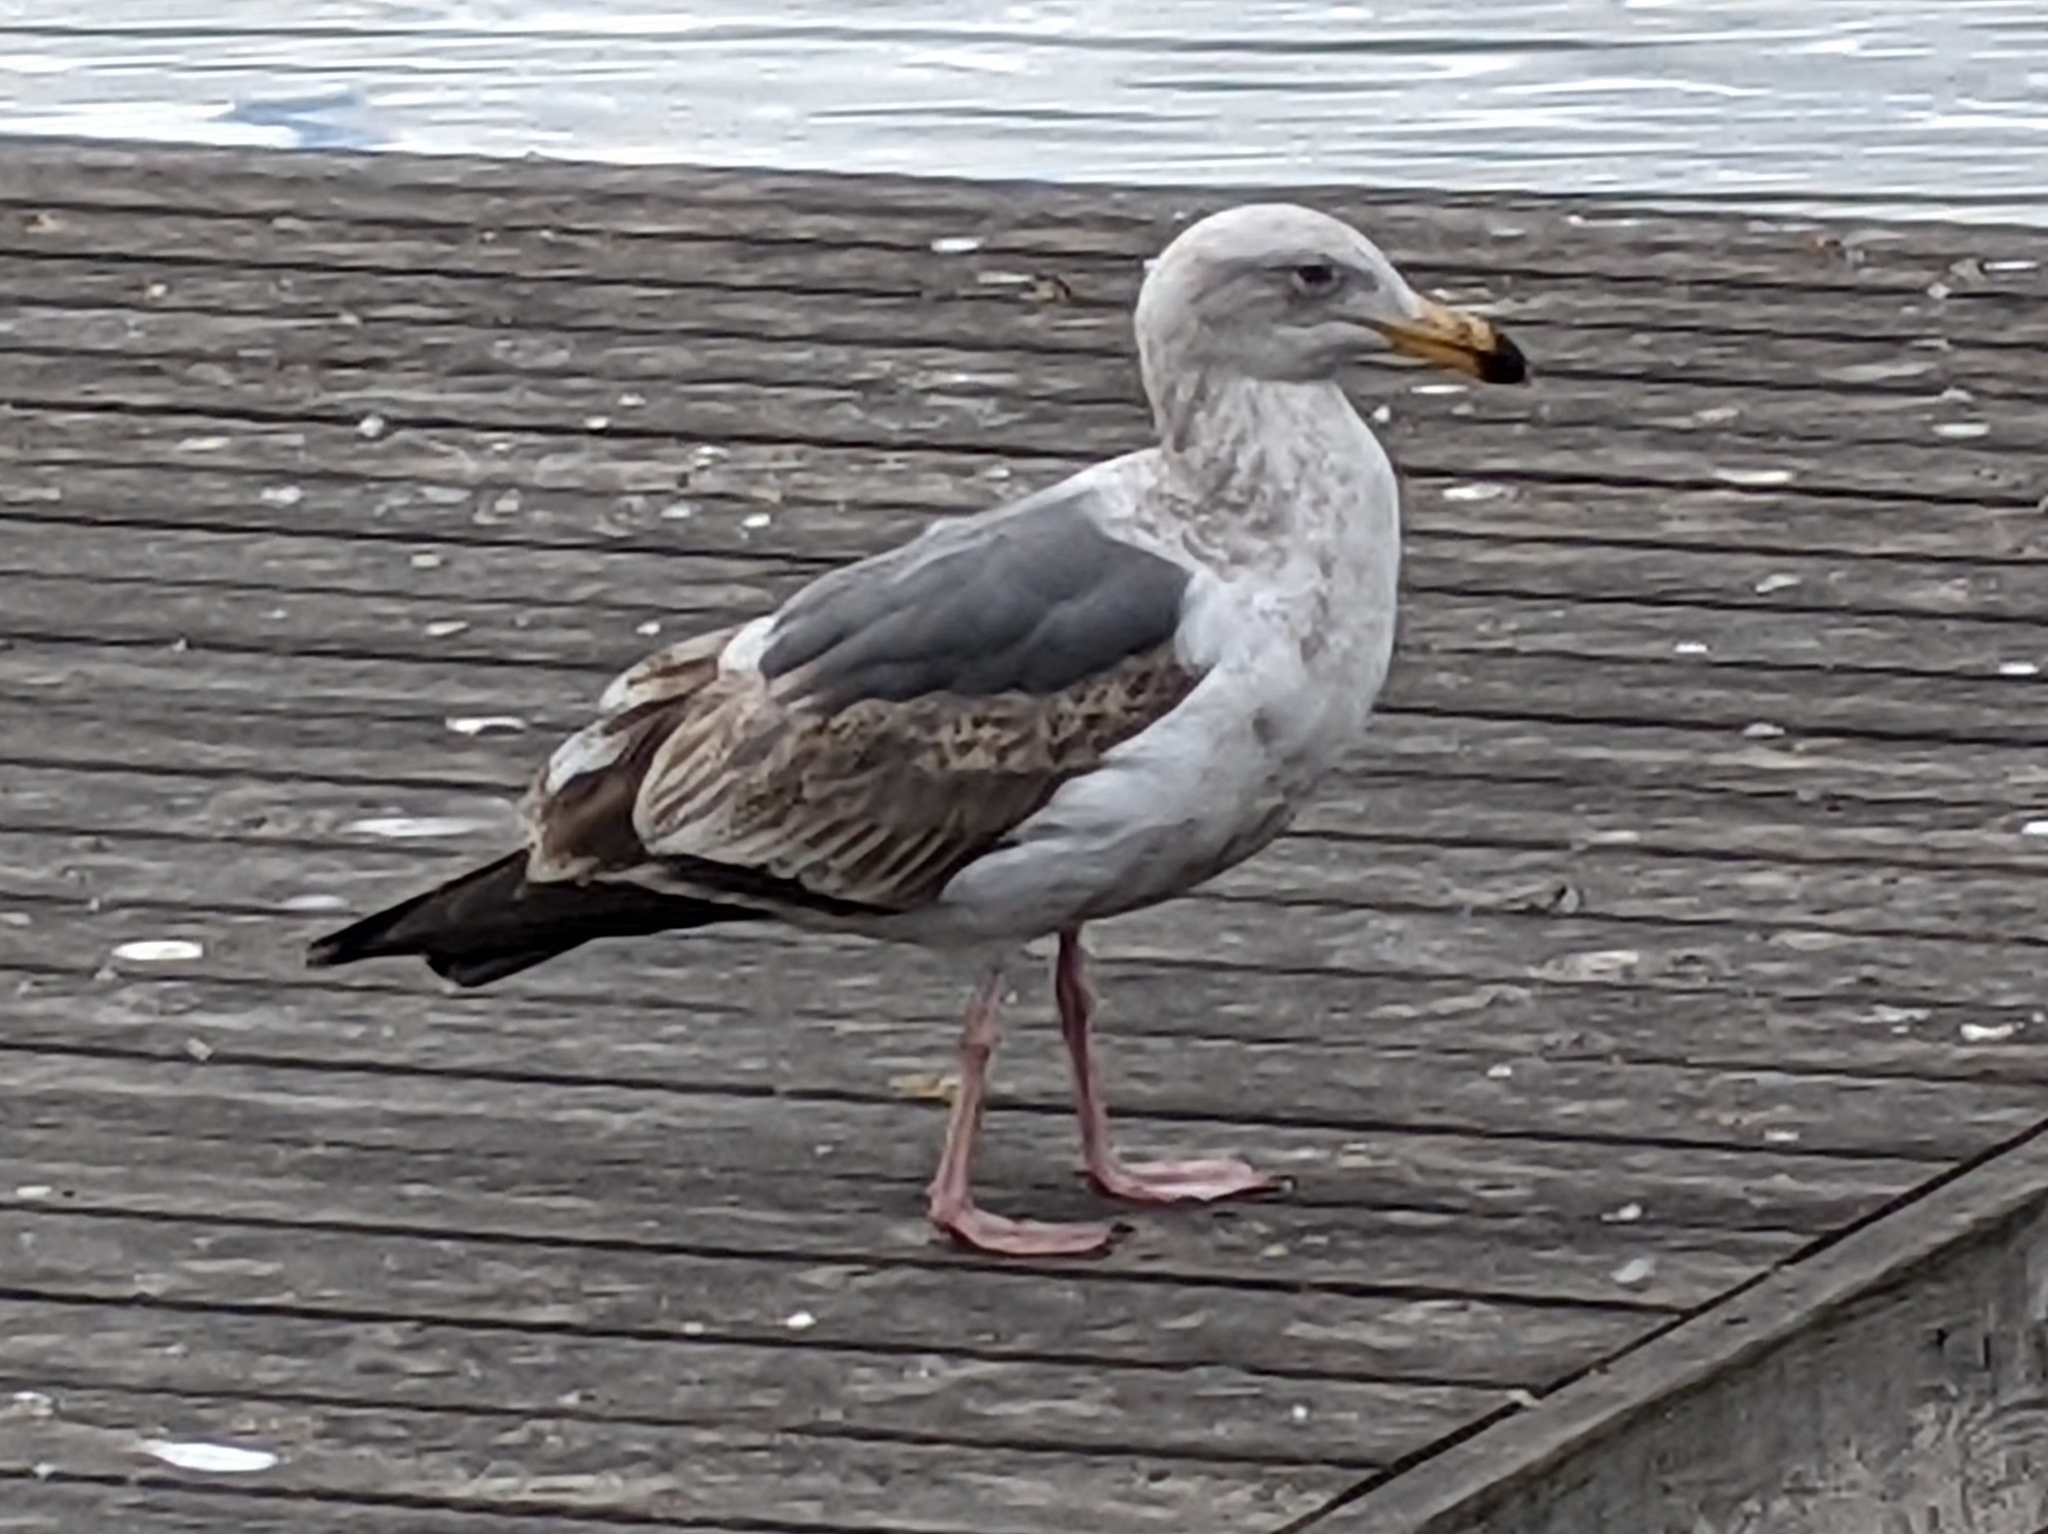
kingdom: Animalia
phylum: Chordata
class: Aves
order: Charadriiformes
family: Laridae
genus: Larus
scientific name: Larus occidentalis
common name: Western gull
